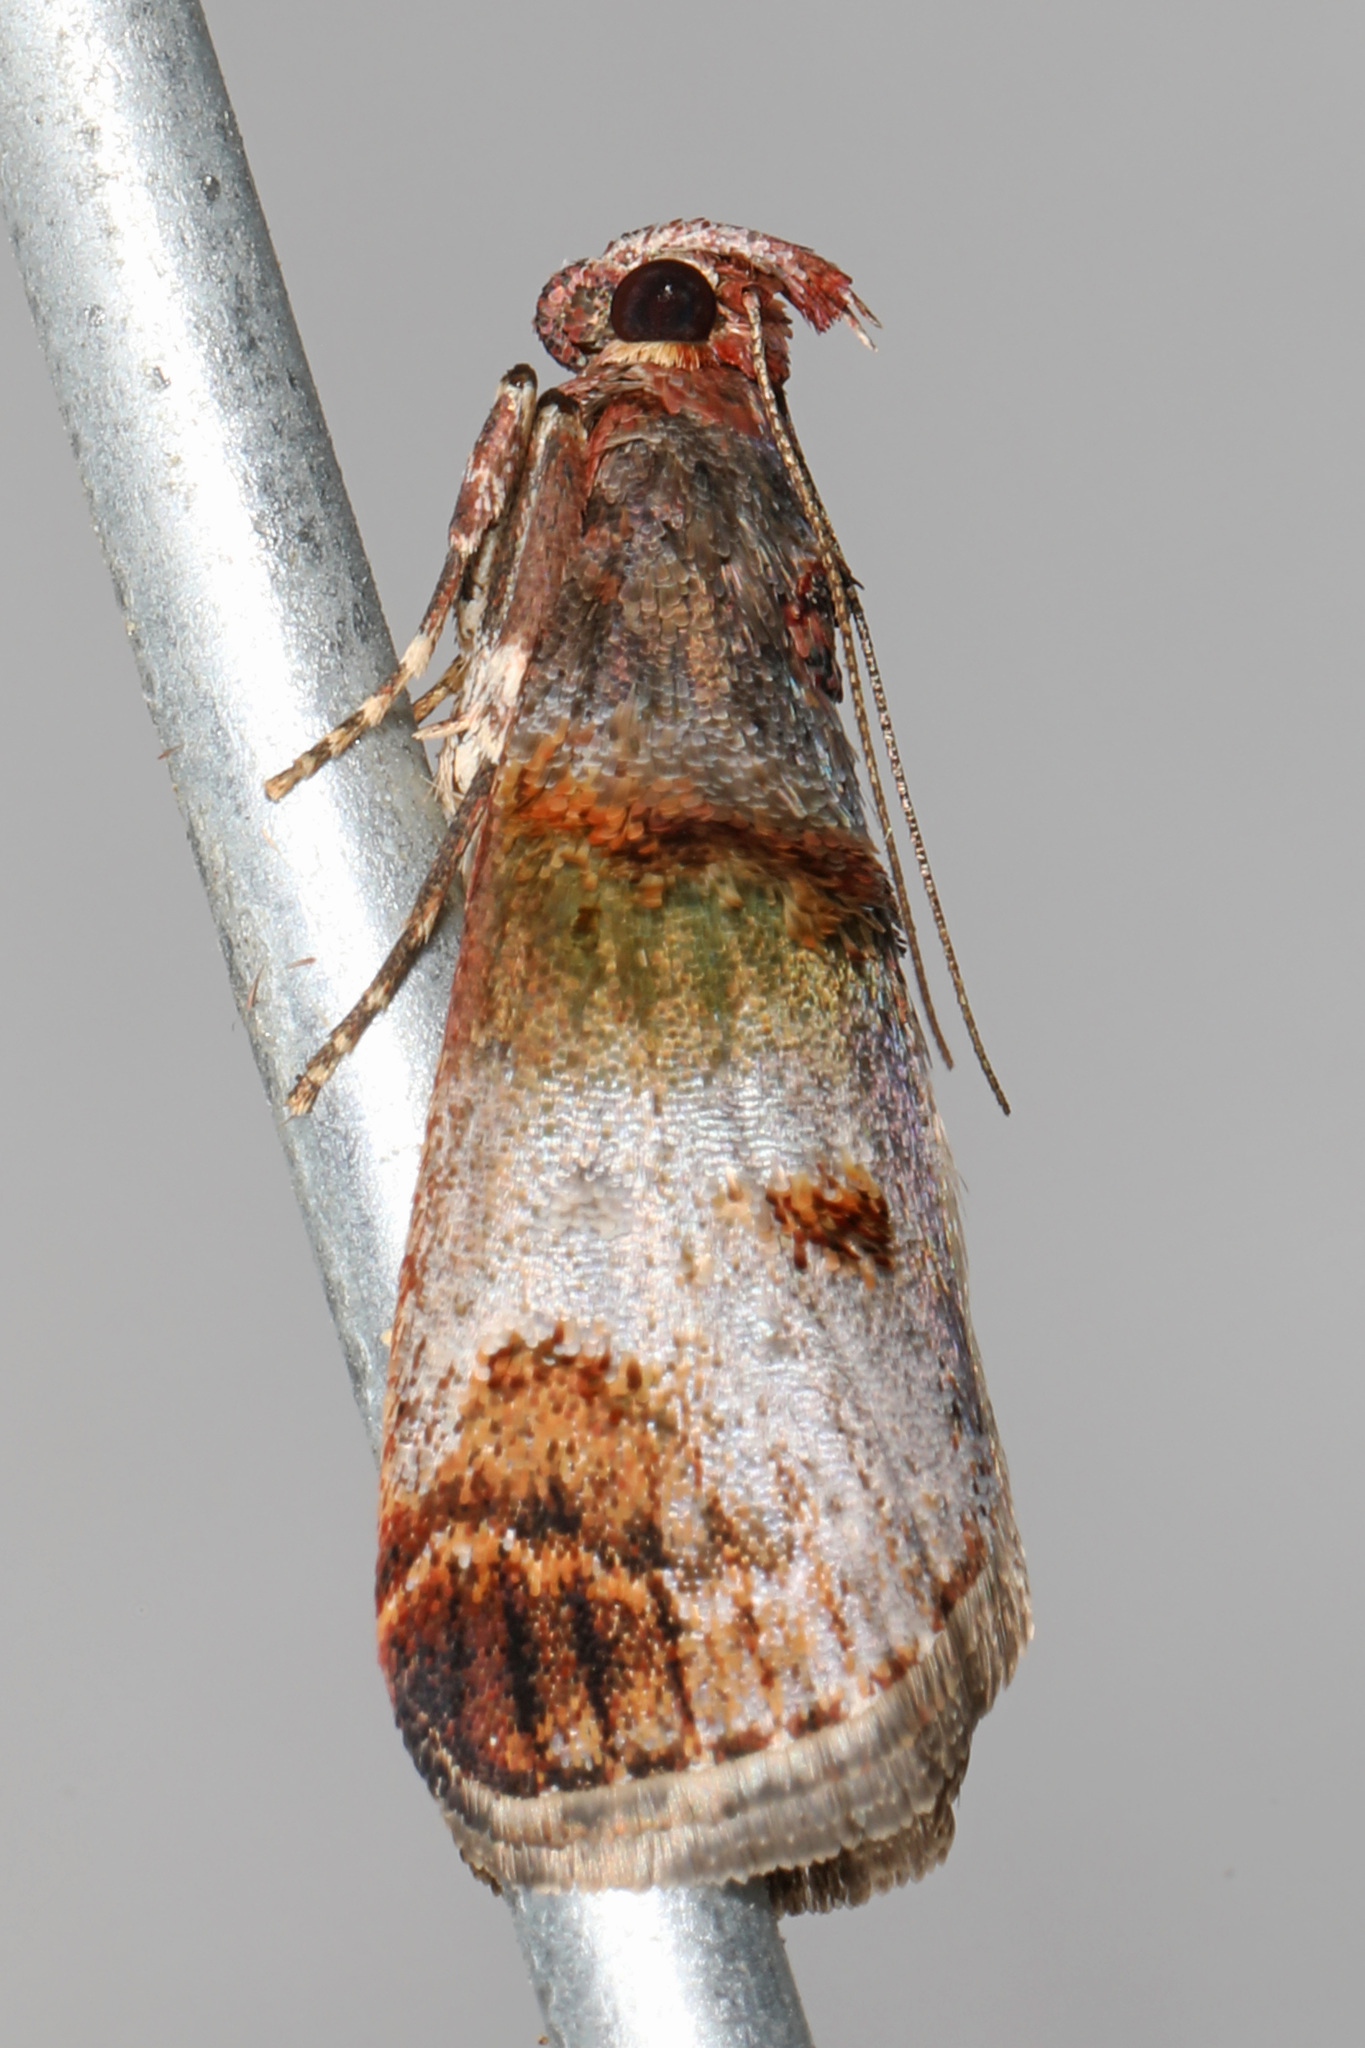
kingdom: Animalia
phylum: Arthropoda
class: Insecta
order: Lepidoptera
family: Pyralidae
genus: Oneida
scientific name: Oneida lunulalis
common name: Orange-tufted oneida moth
